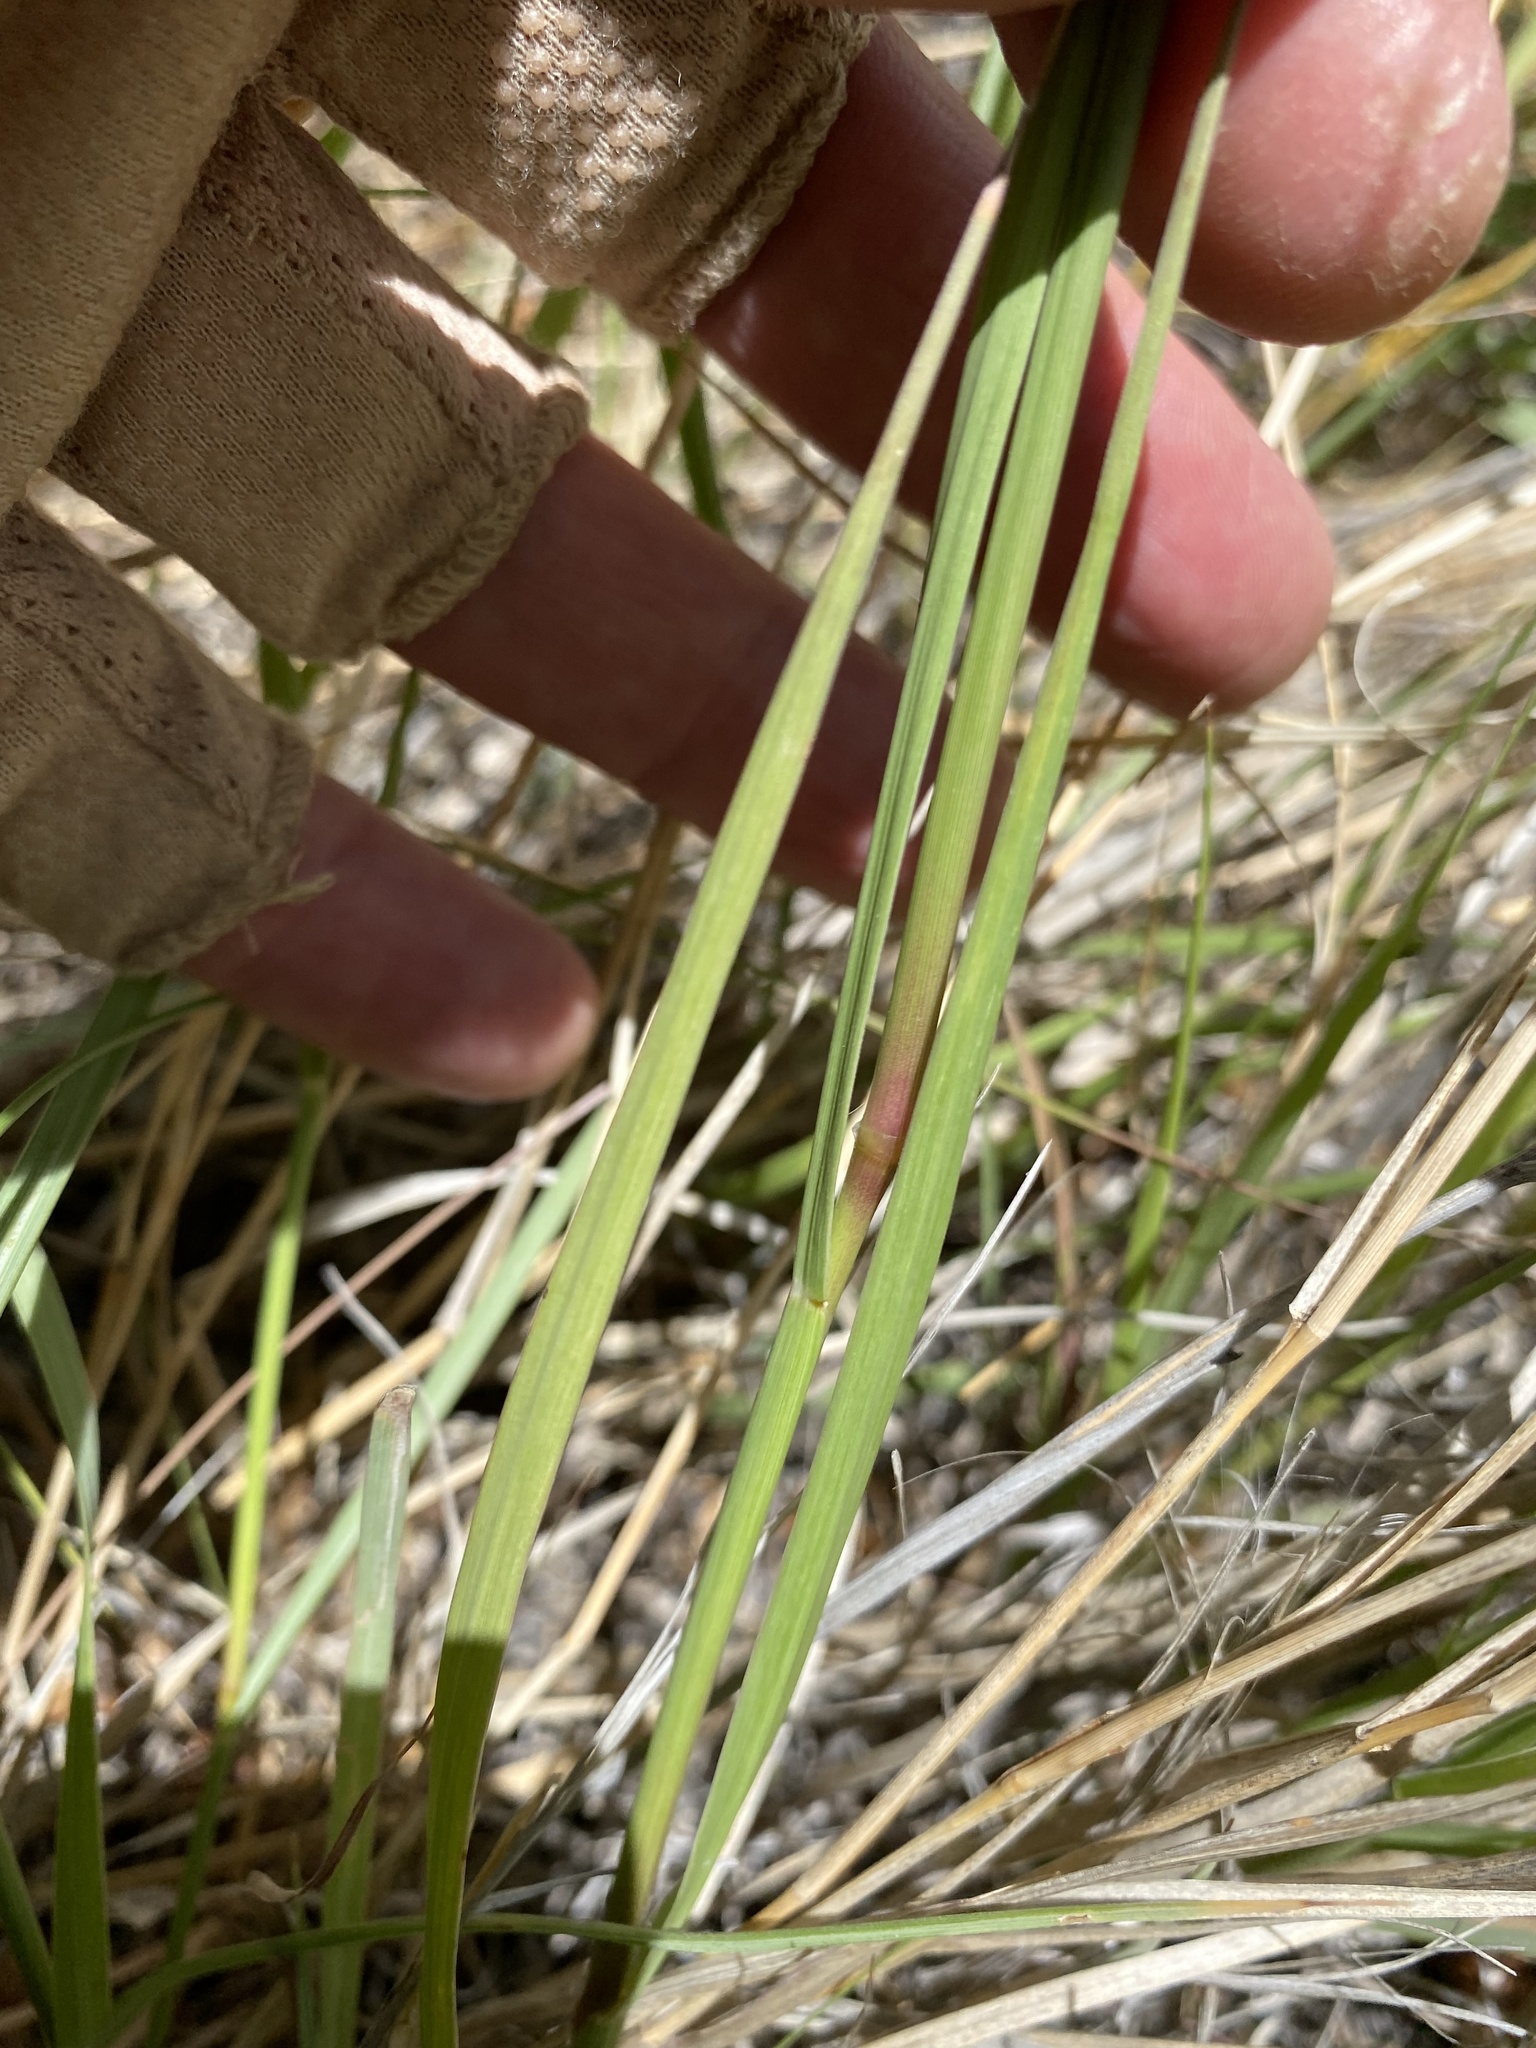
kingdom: Plantae
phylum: Tracheophyta
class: Liliopsida
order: Poales
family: Poaceae
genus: Hopia
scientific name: Hopia obtusa
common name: Vine-mesquite
